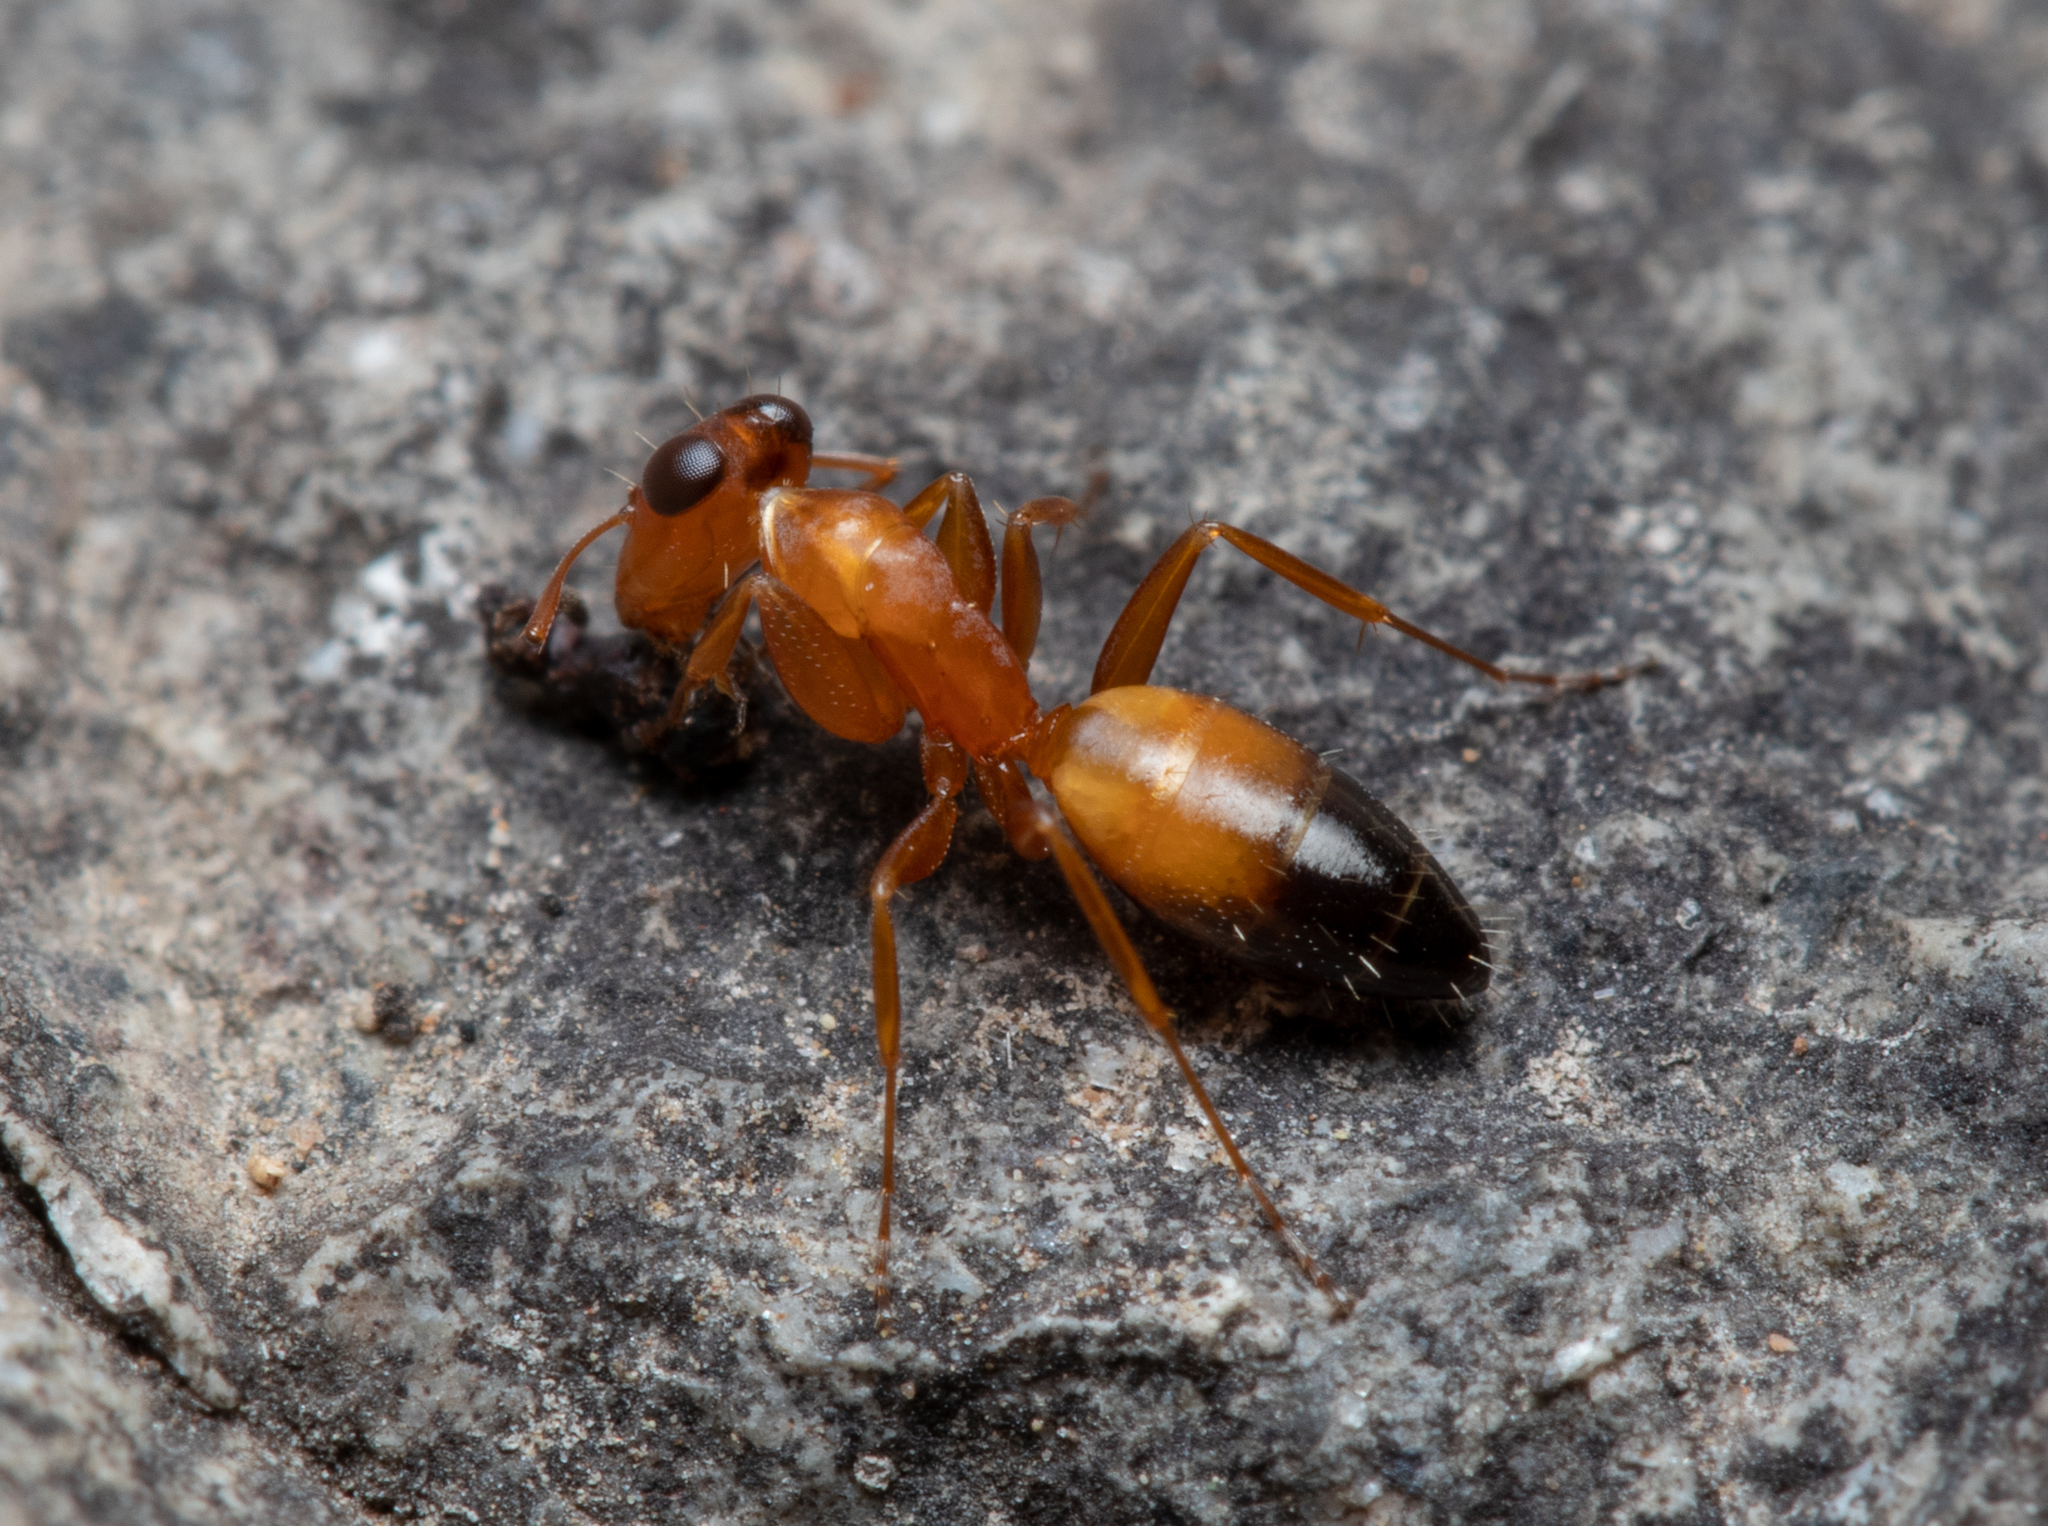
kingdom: Animalia
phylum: Arthropoda
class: Insecta
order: Hymenoptera
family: Formicidae
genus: Opisthopsis
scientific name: Opisthopsis haddoni
